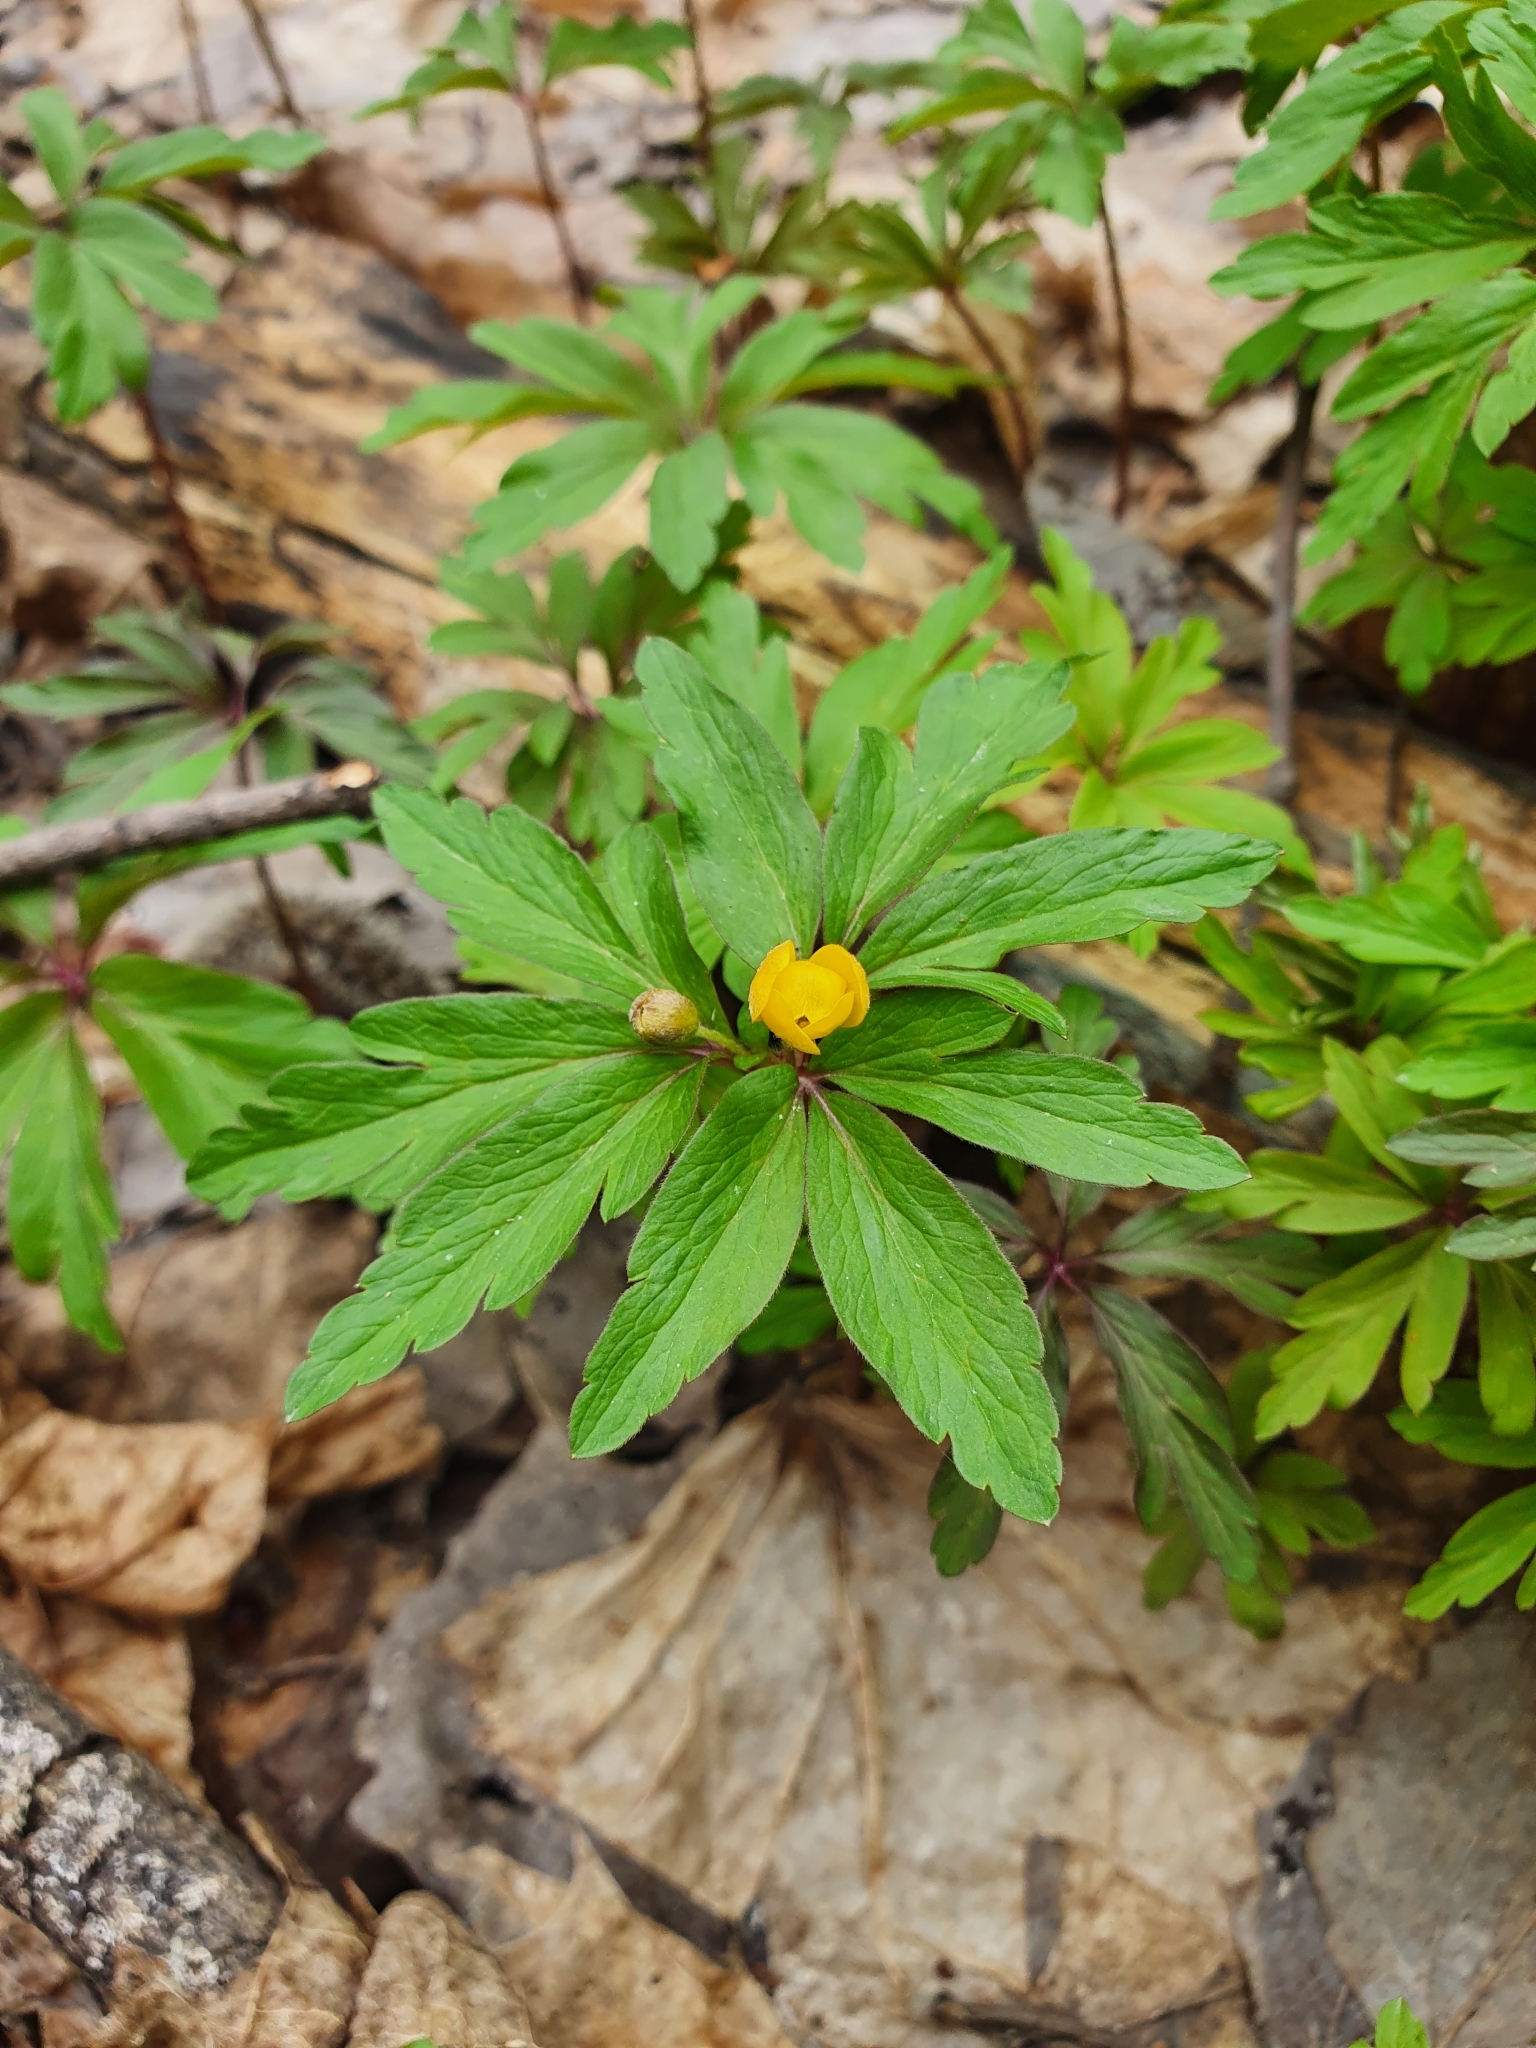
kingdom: Plantae
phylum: Tracheophyta
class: Magnoliopsida
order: Ranunculales
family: Ranunculaceae
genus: Anemone
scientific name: Anemone ranunculoides
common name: Yellow anemone
